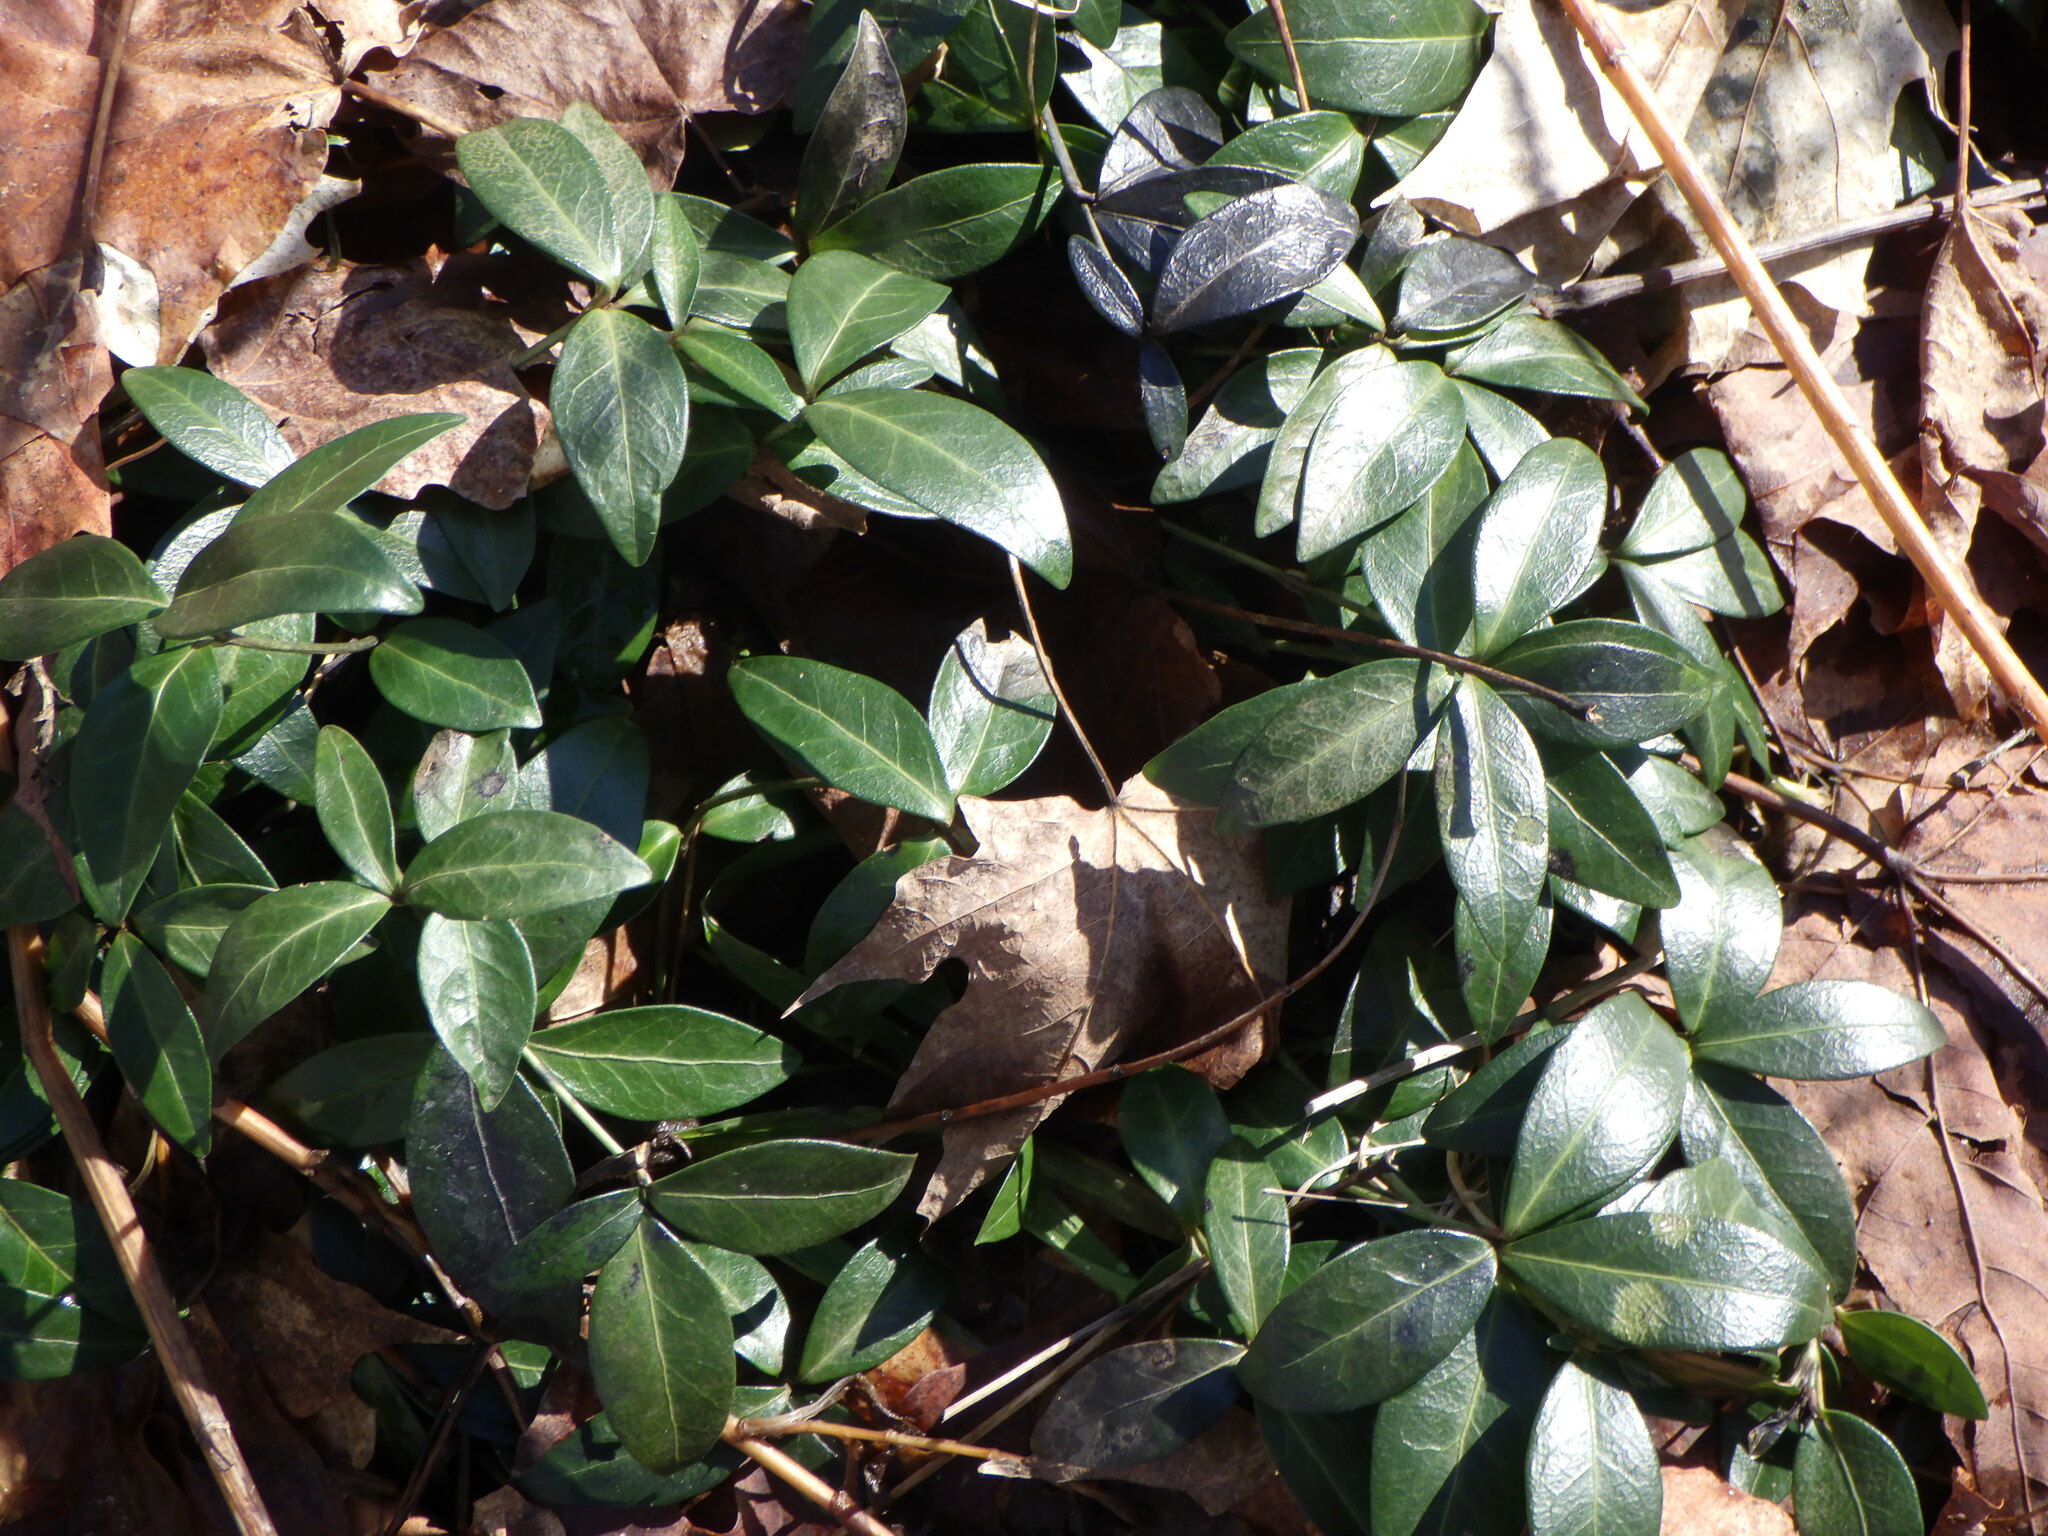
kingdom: Plantae
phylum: Tracheophyta
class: Magnoliopsida
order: Gentianales
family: Apocynaceae
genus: Vinca
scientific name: Vinca minor
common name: Lesser periwinkle
